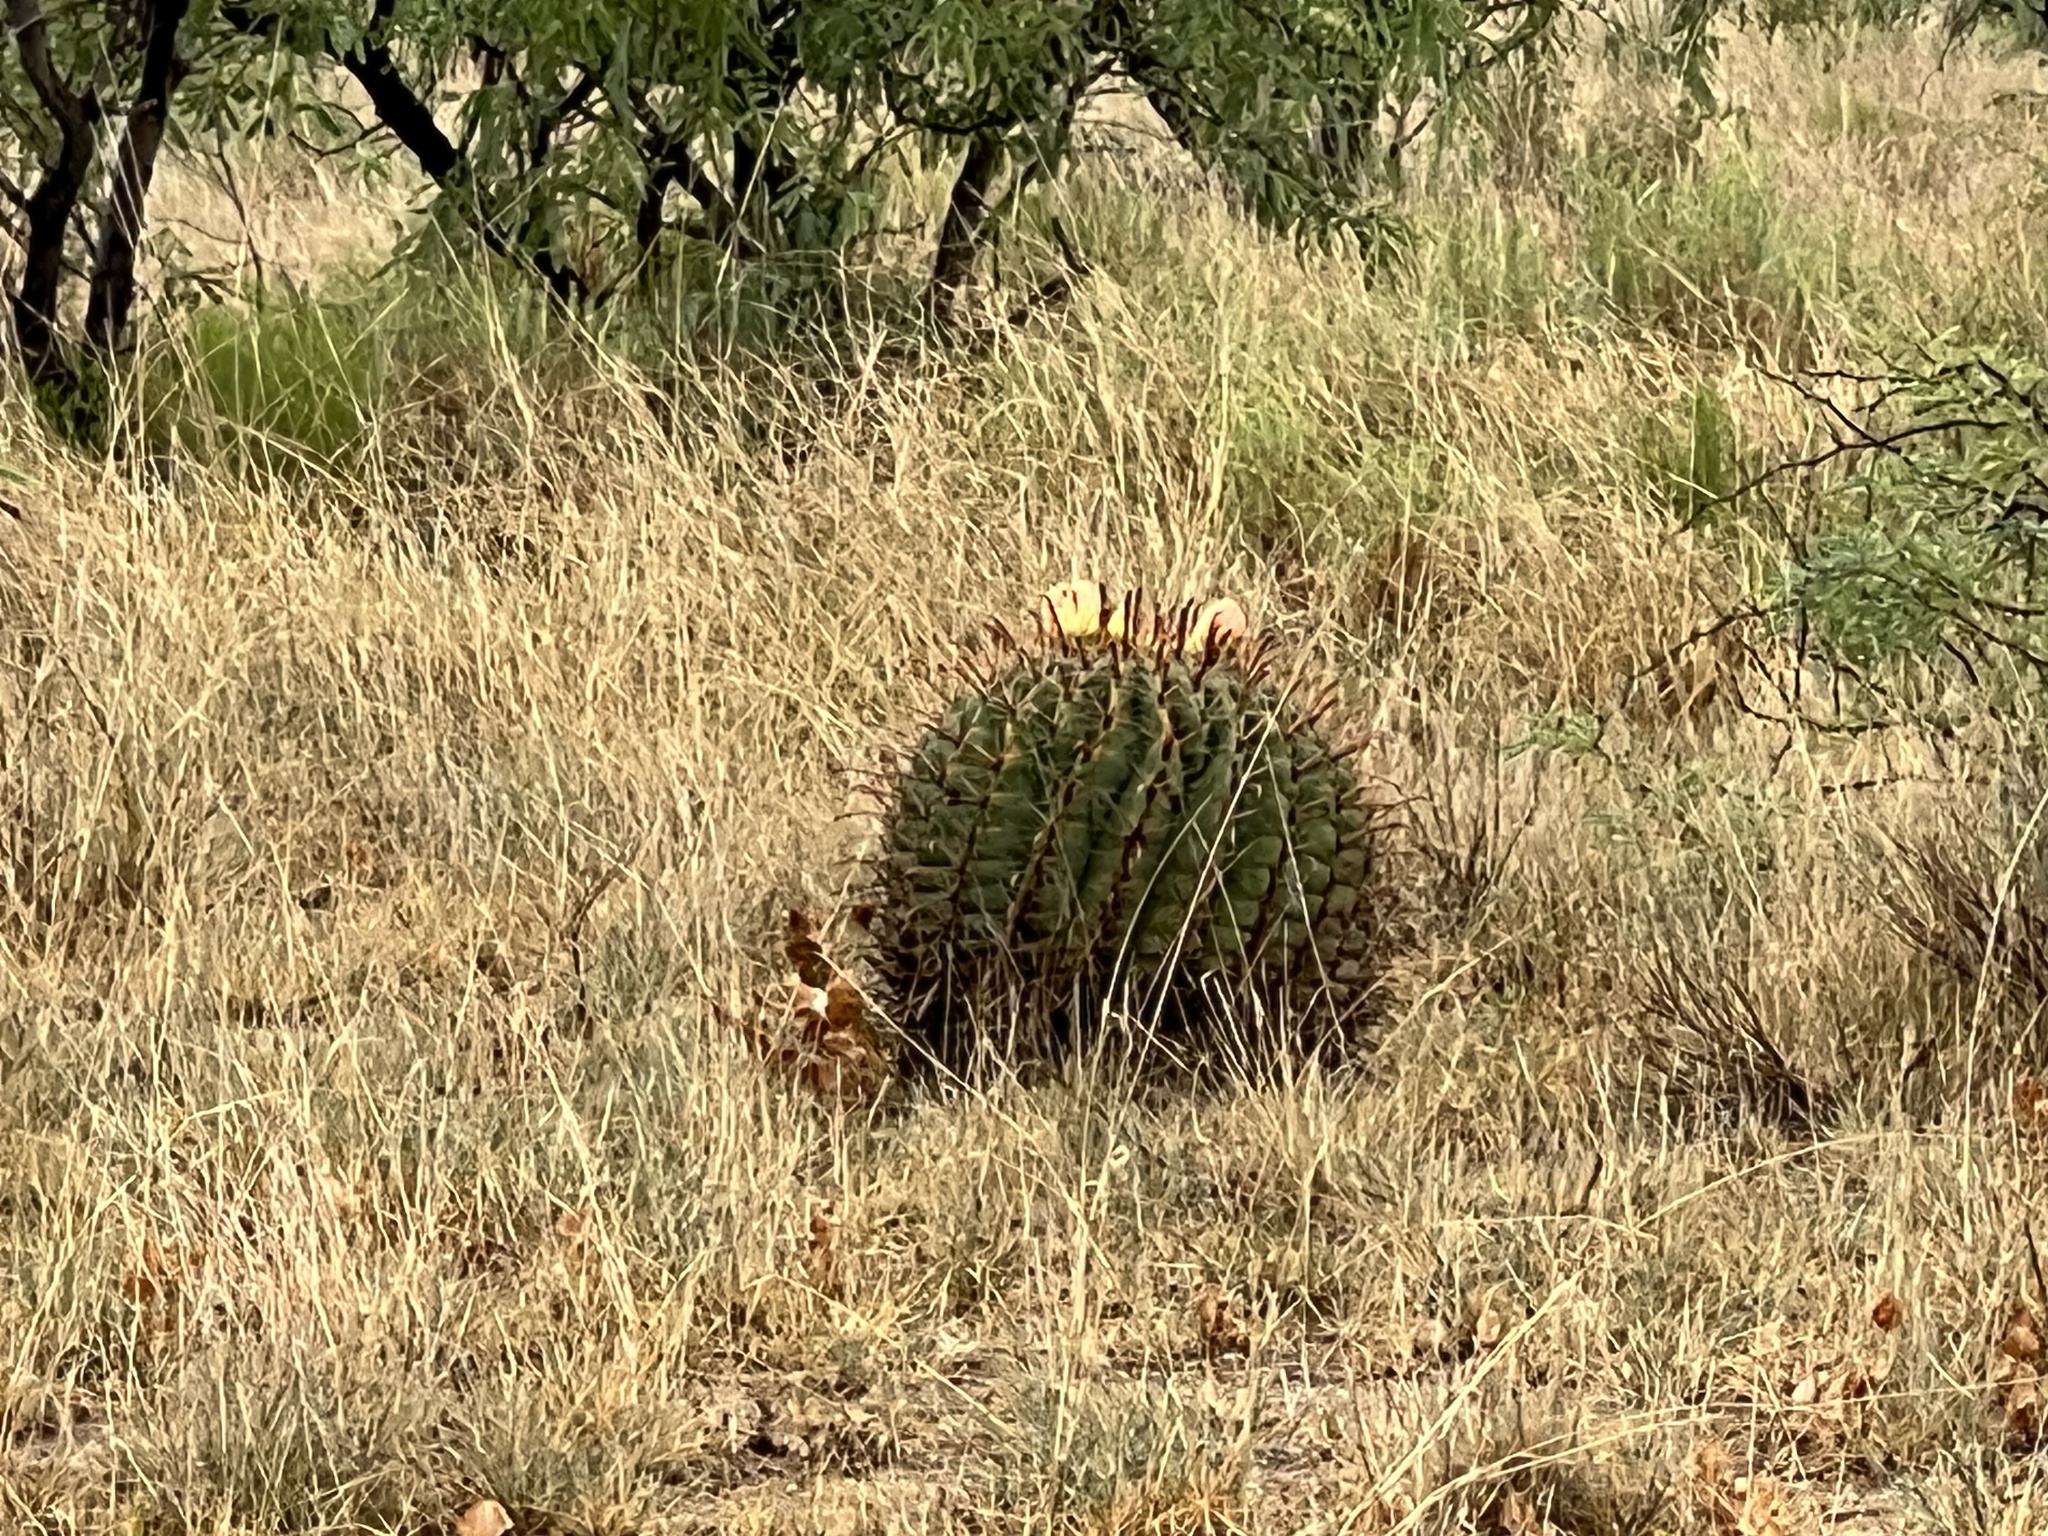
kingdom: Plantae
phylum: Tracheophyta
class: Magnoliopsida
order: Caryophyllales
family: Cactaceae
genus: Ferocactus
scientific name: Ferocactus wislizeni
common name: Candy barrel cactus
